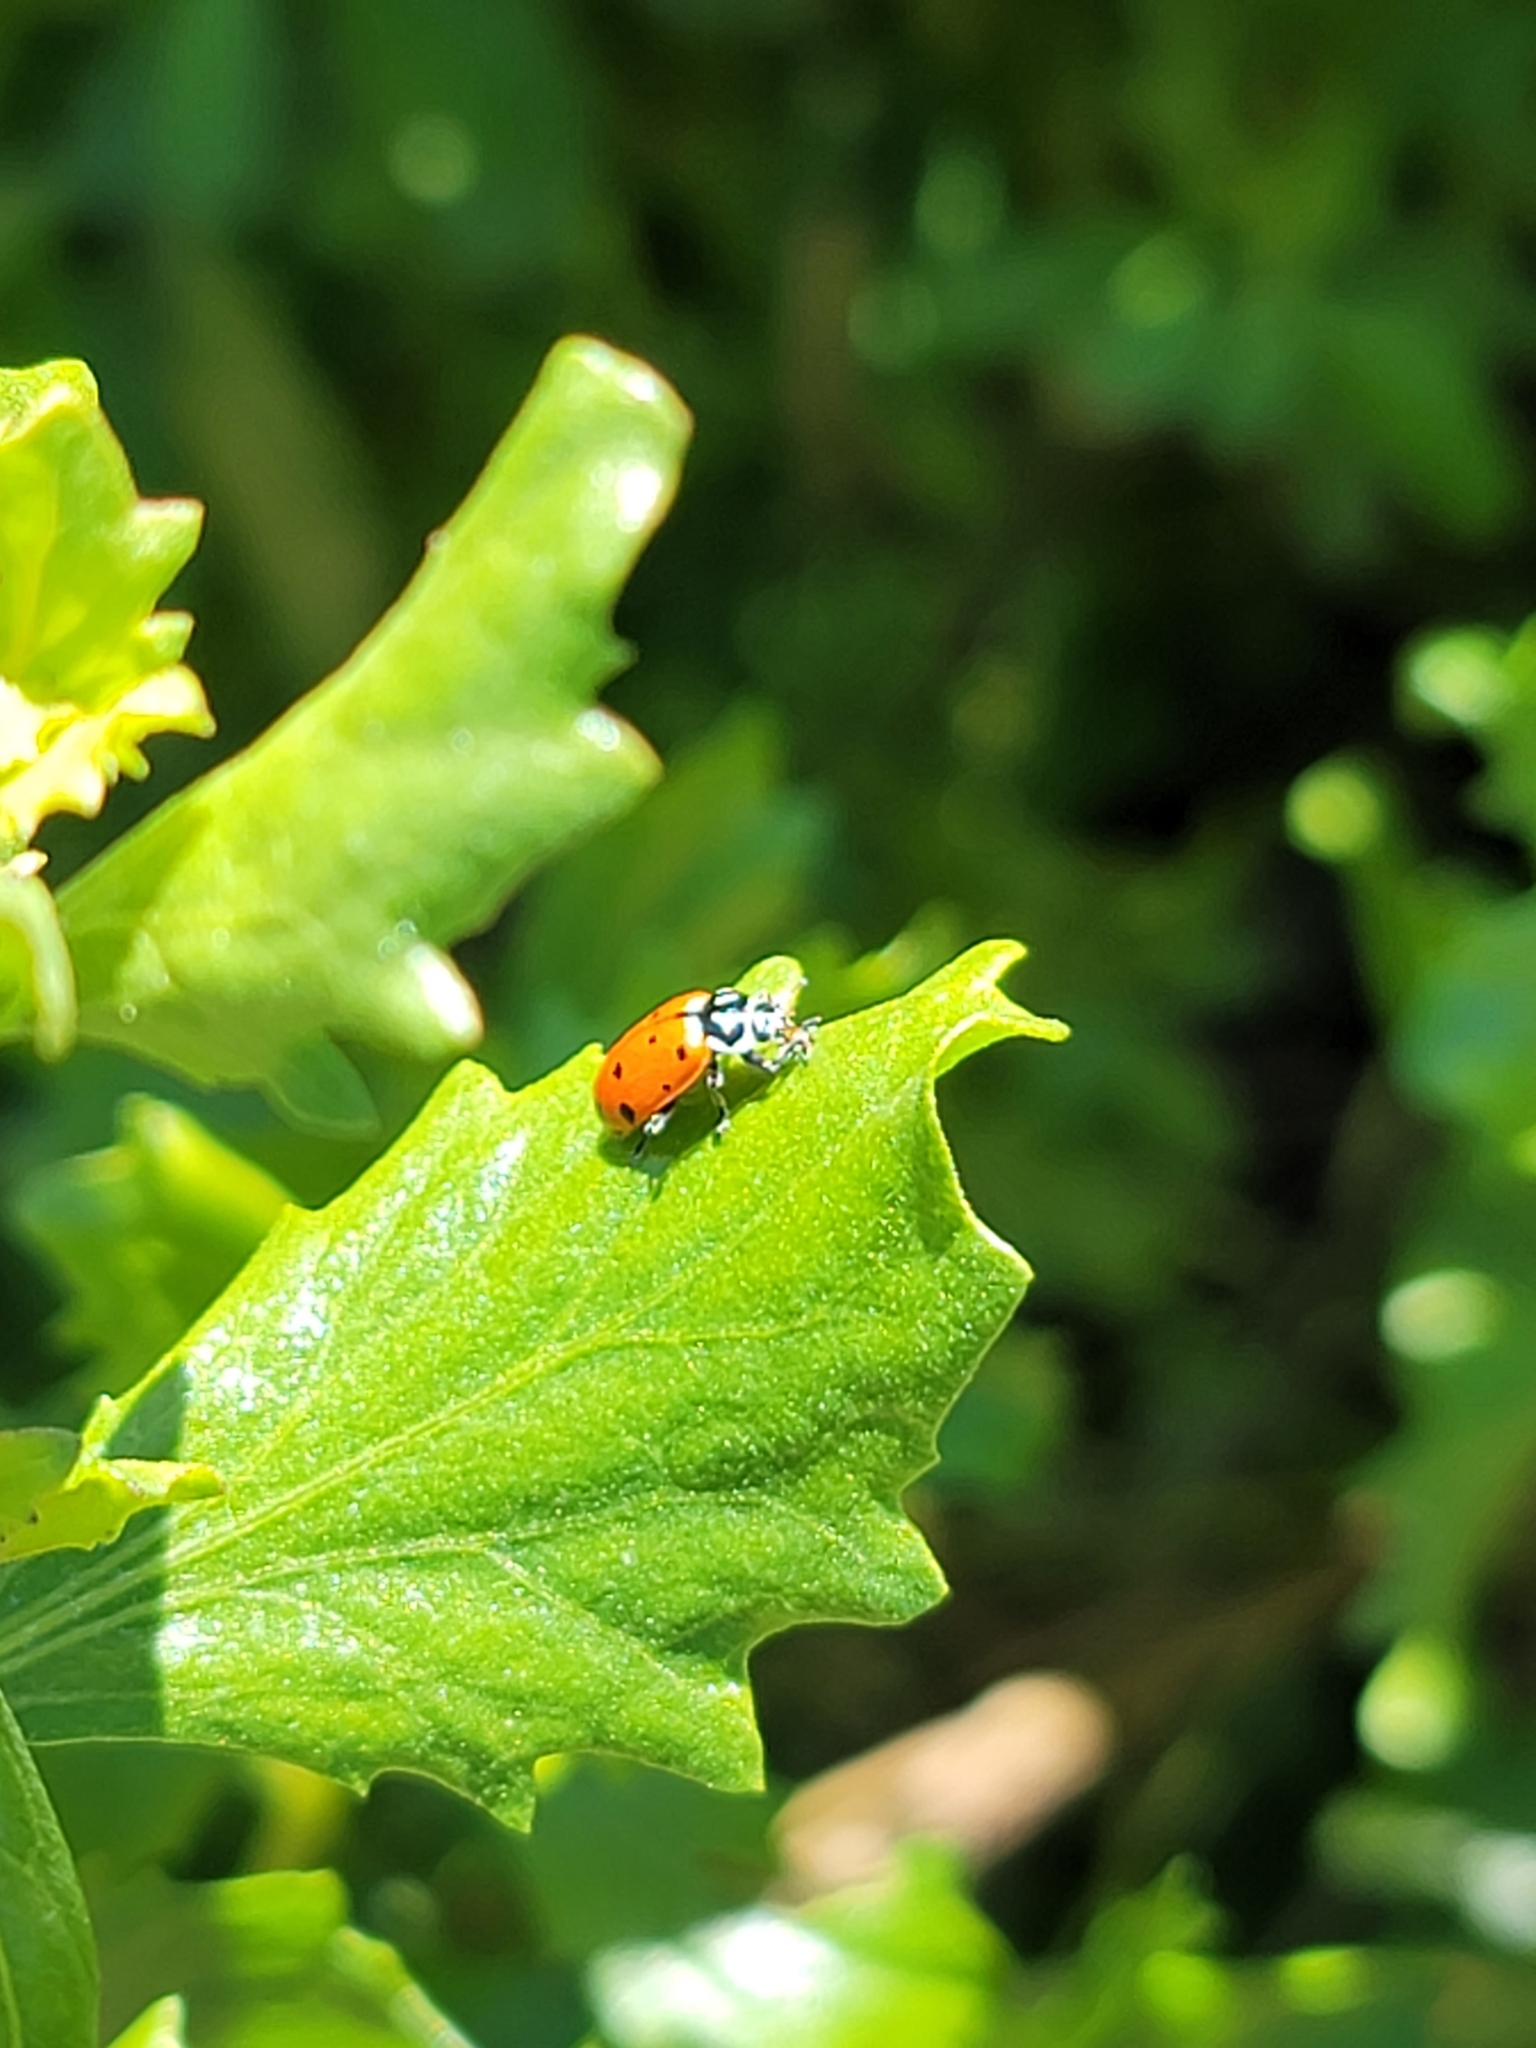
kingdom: Animalia
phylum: Arthropoda
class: Insecta
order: Coleoptera
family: Coccinellidae
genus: Hippodamia
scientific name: Hippodamia convergens
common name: Convergent lady beetle
